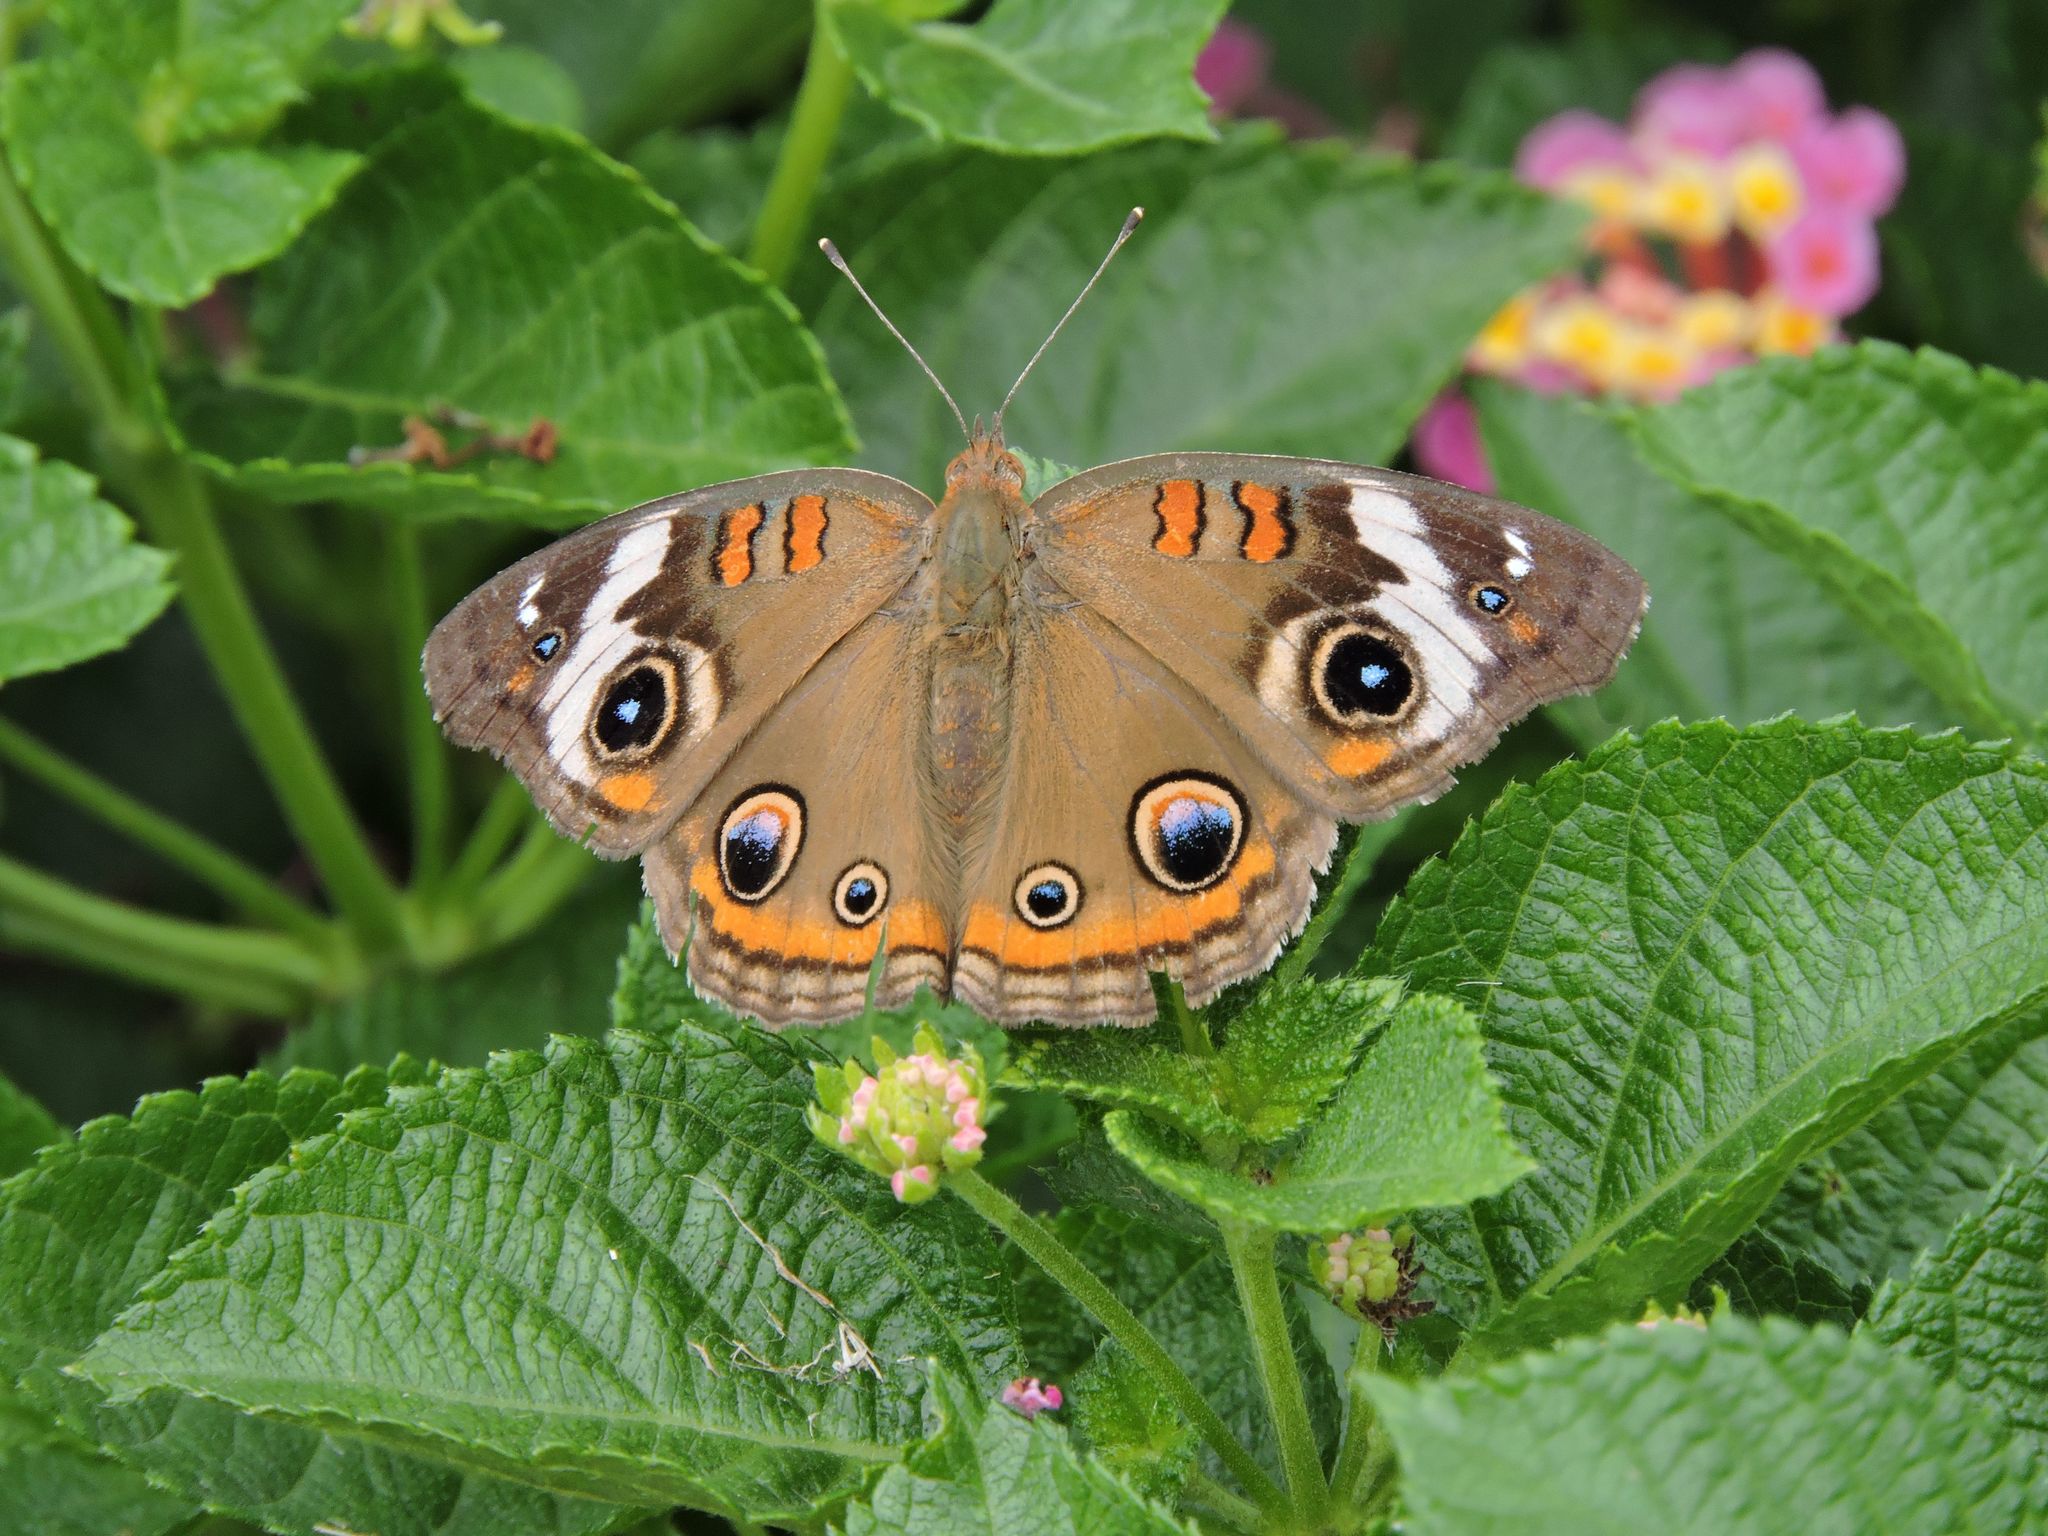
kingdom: Animalia
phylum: Arthropoda
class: Insecta
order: Lepidoptera
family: Nymphalidae
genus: Junonia
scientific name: Junonia coenia
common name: Common buckeye
